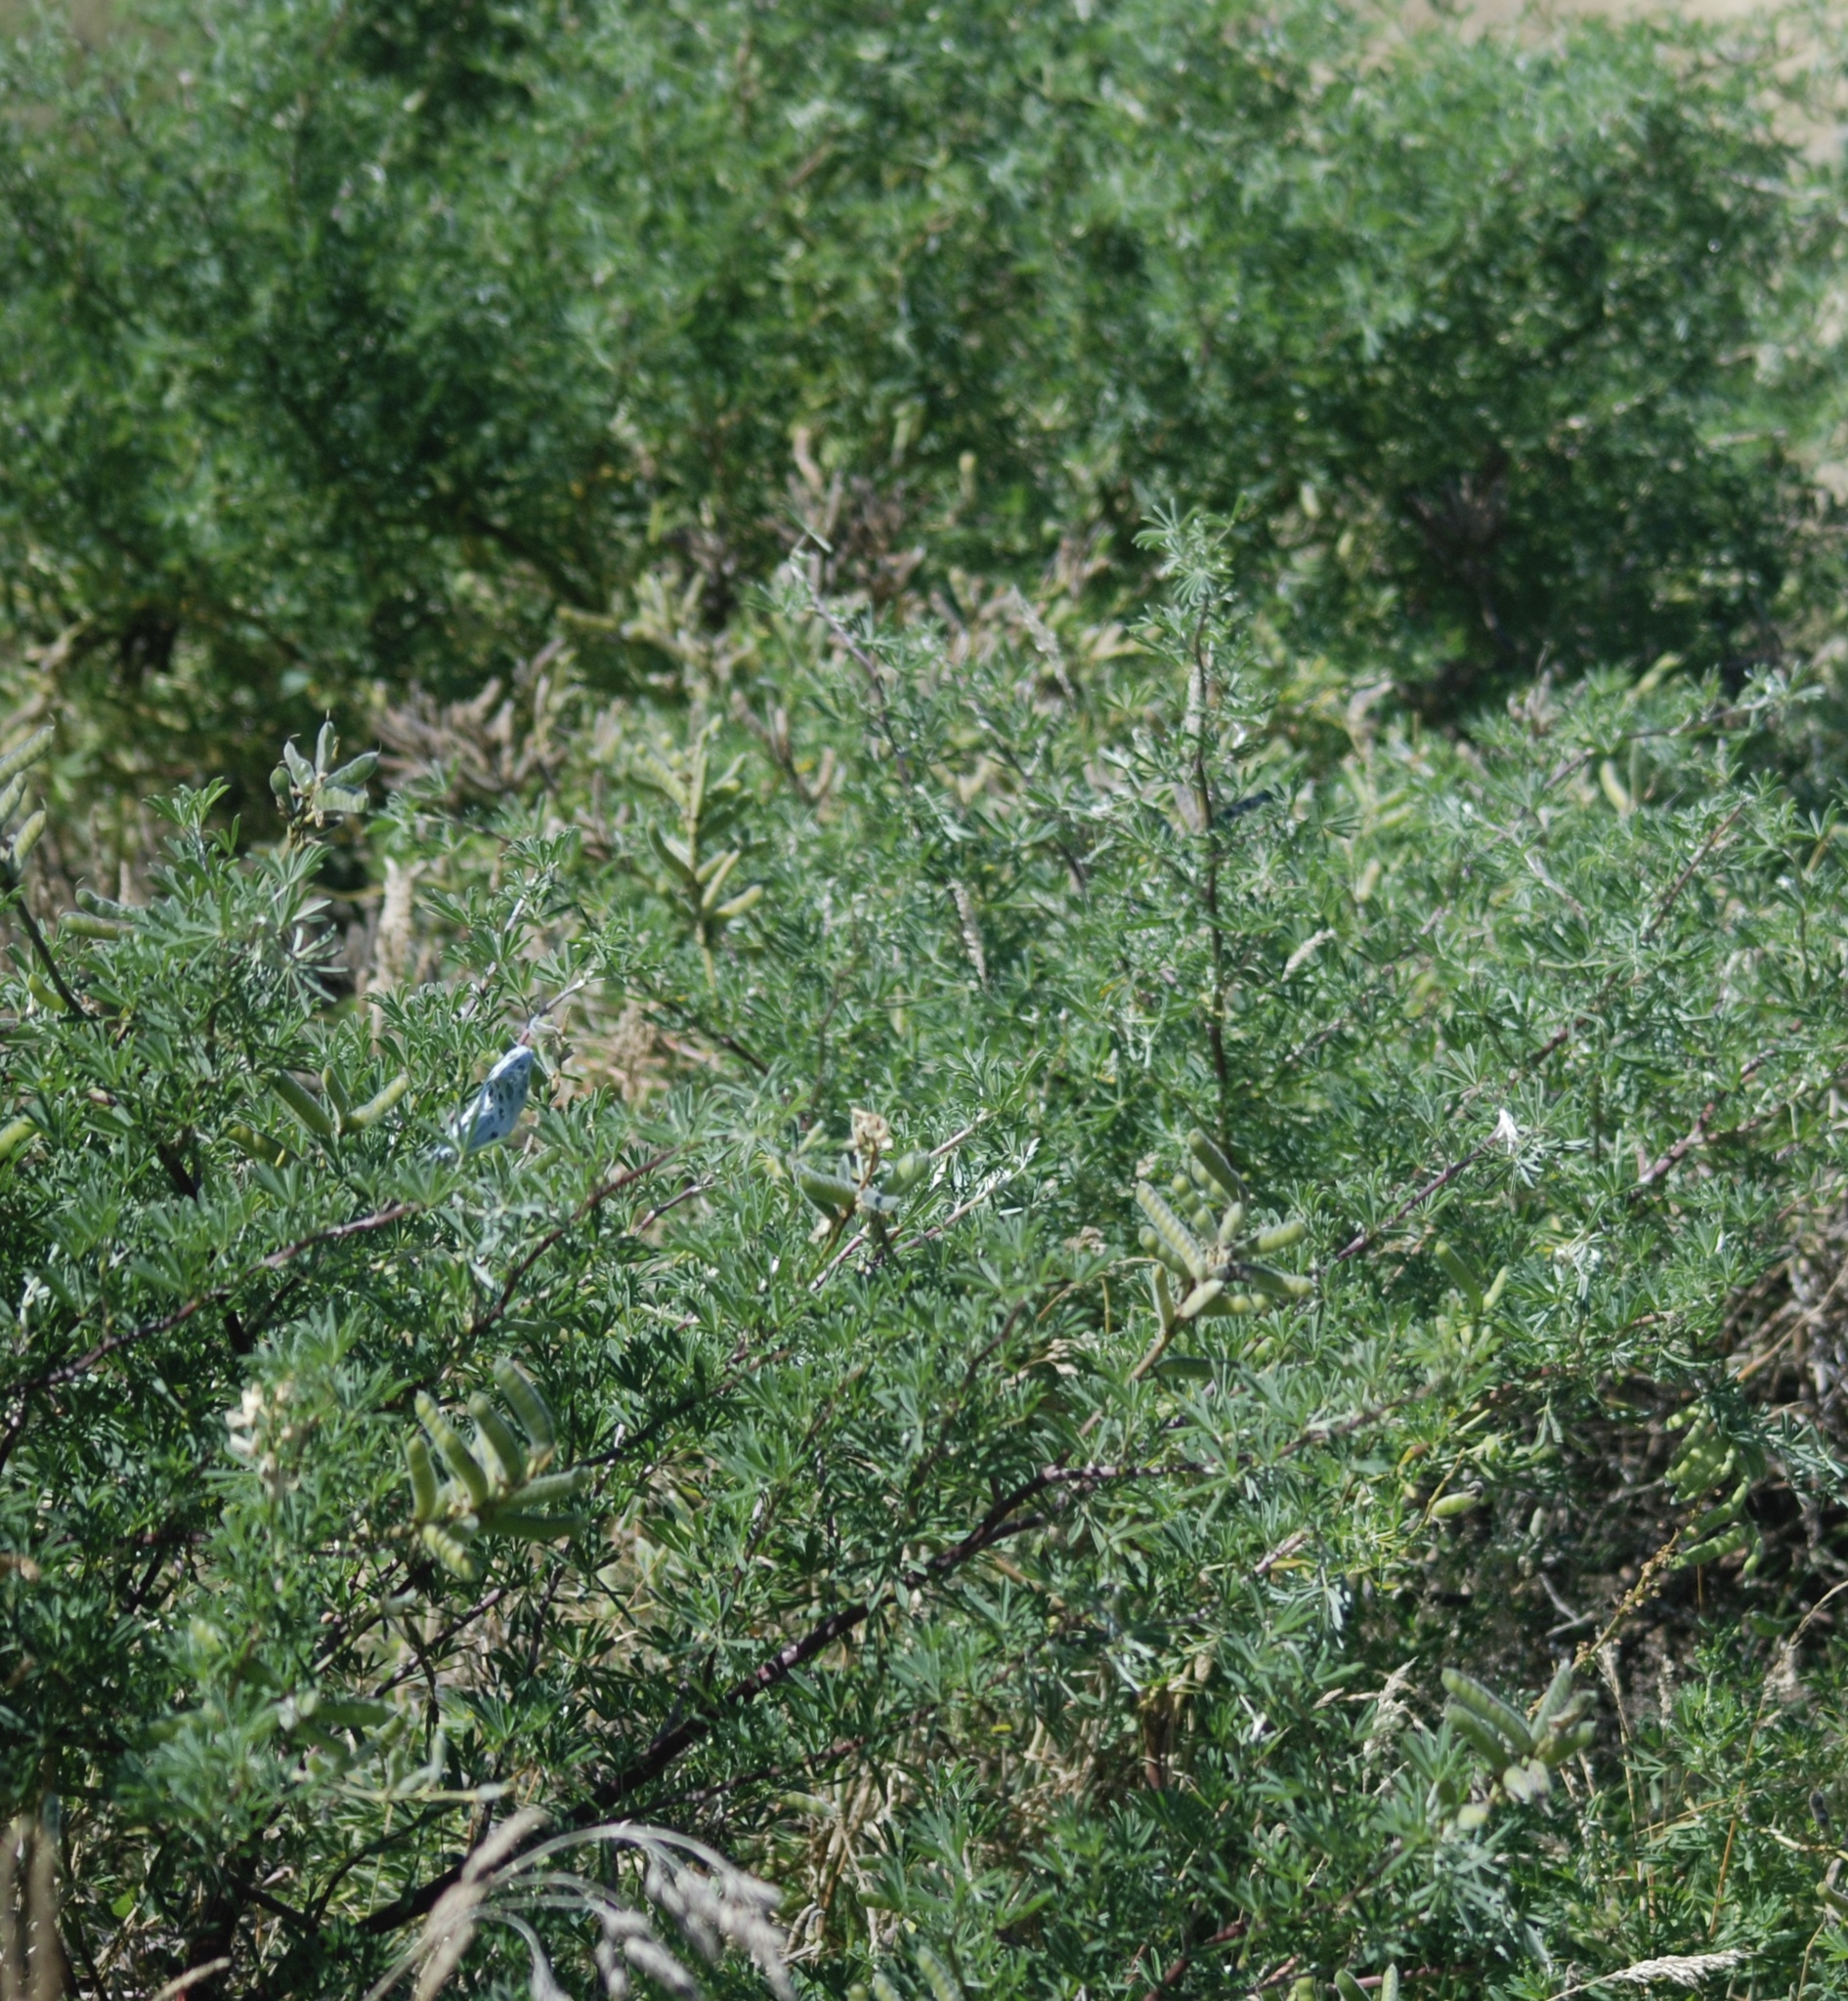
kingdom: Plantae
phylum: Tracheophyta
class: Magnoliopsida
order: Fabales
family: Fabaceae
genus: Lupinus
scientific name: Lupinus arboreus
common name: Yellow bush lupine
